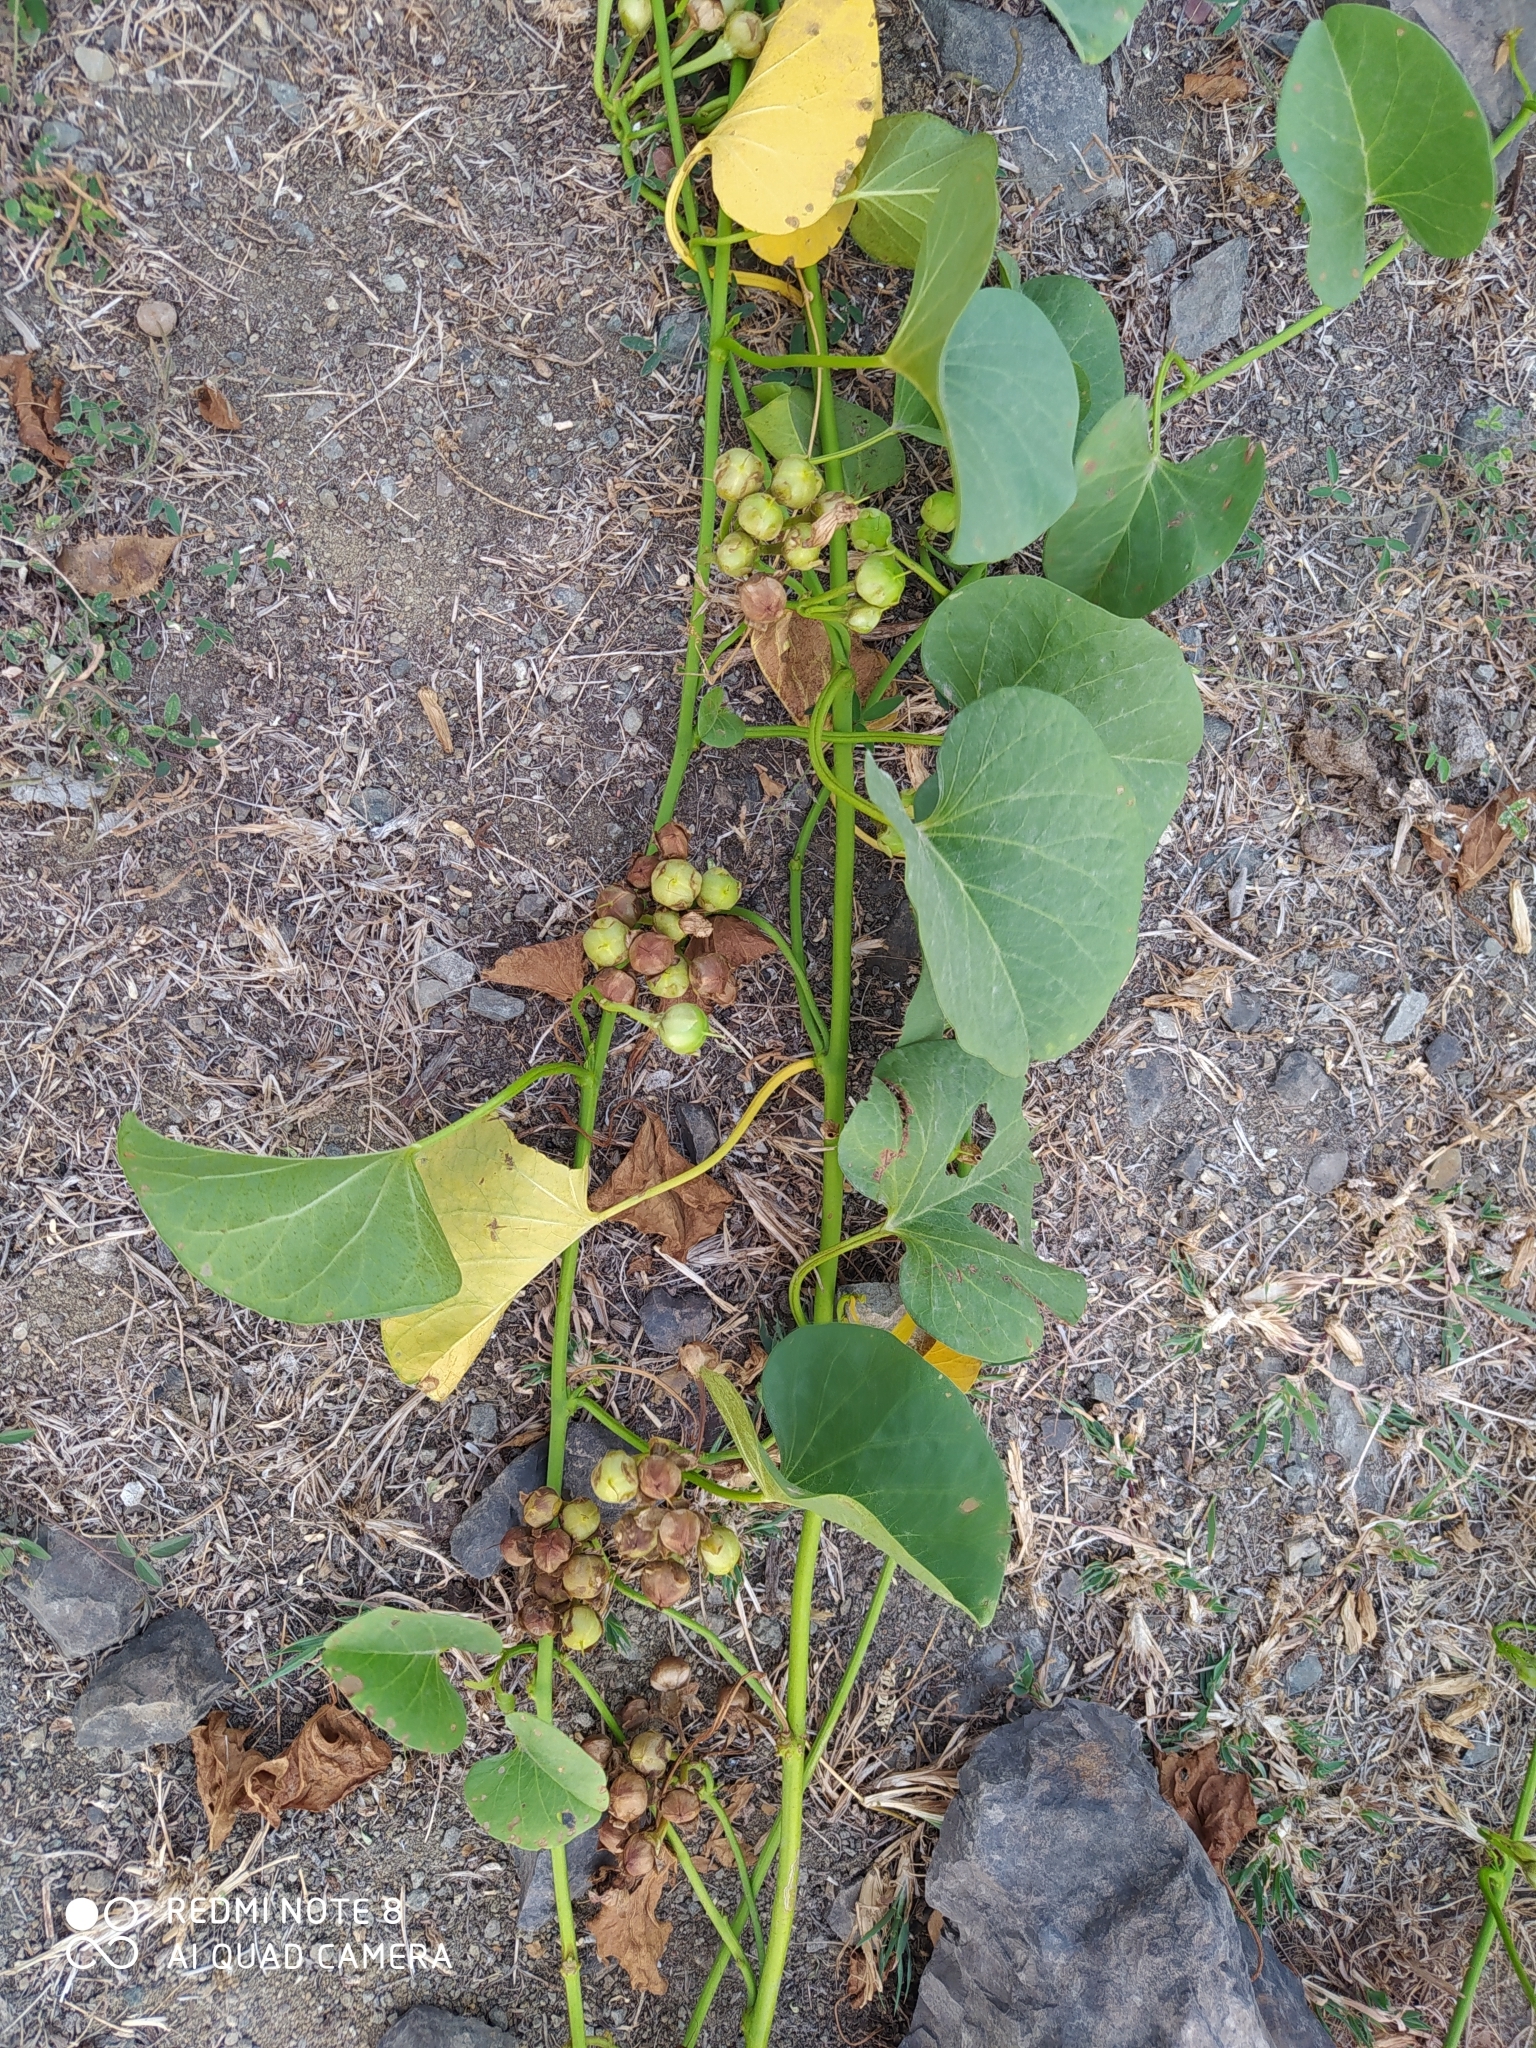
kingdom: Plantae
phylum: Tracheophyta
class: Magnoliopsida
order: Solanales
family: Convolvulaceae
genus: Ipomoea
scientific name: Ipomoea asarifolia
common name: Ginger-leaf morning-glory
